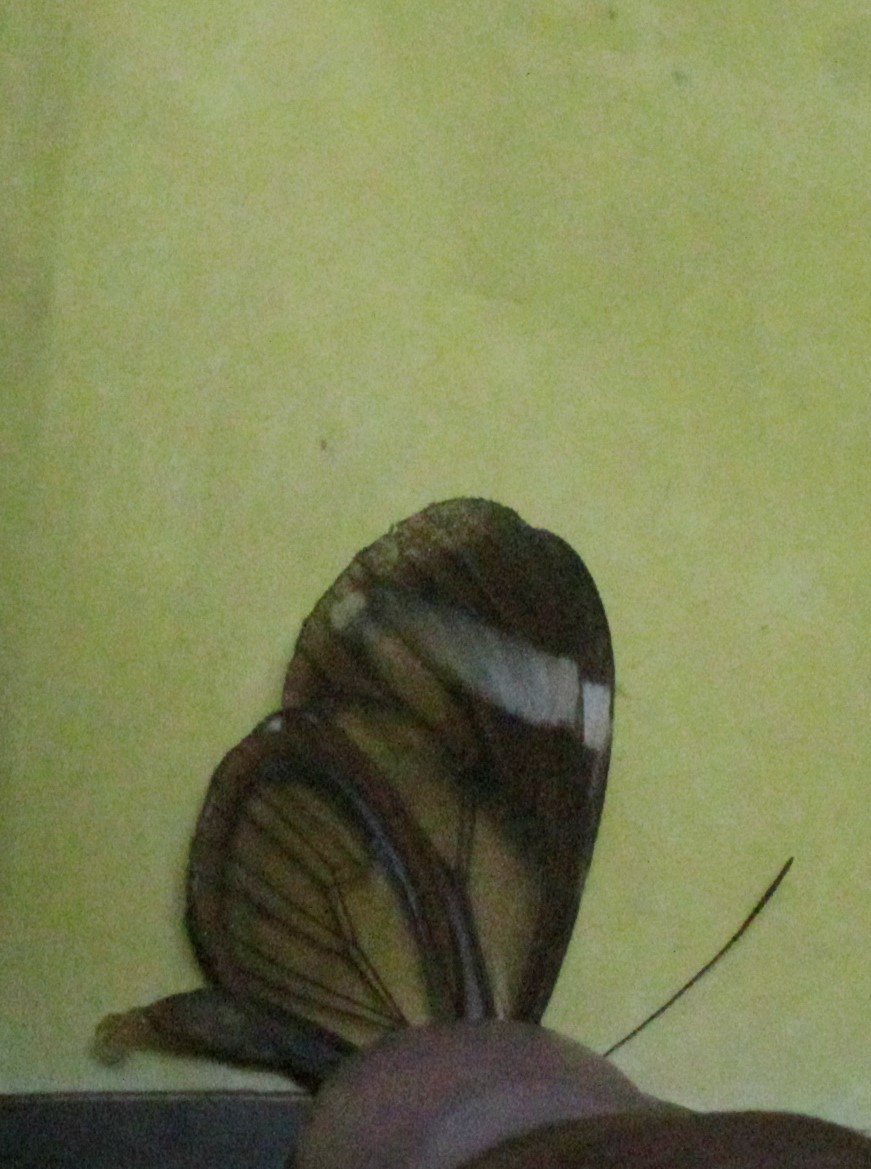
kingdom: Animalia
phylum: Arthropoda
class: Insecta
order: Lepidoptera
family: Nymphalidae
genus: Ithomia
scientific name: Ithomia patilla
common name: Patilla clearwing
